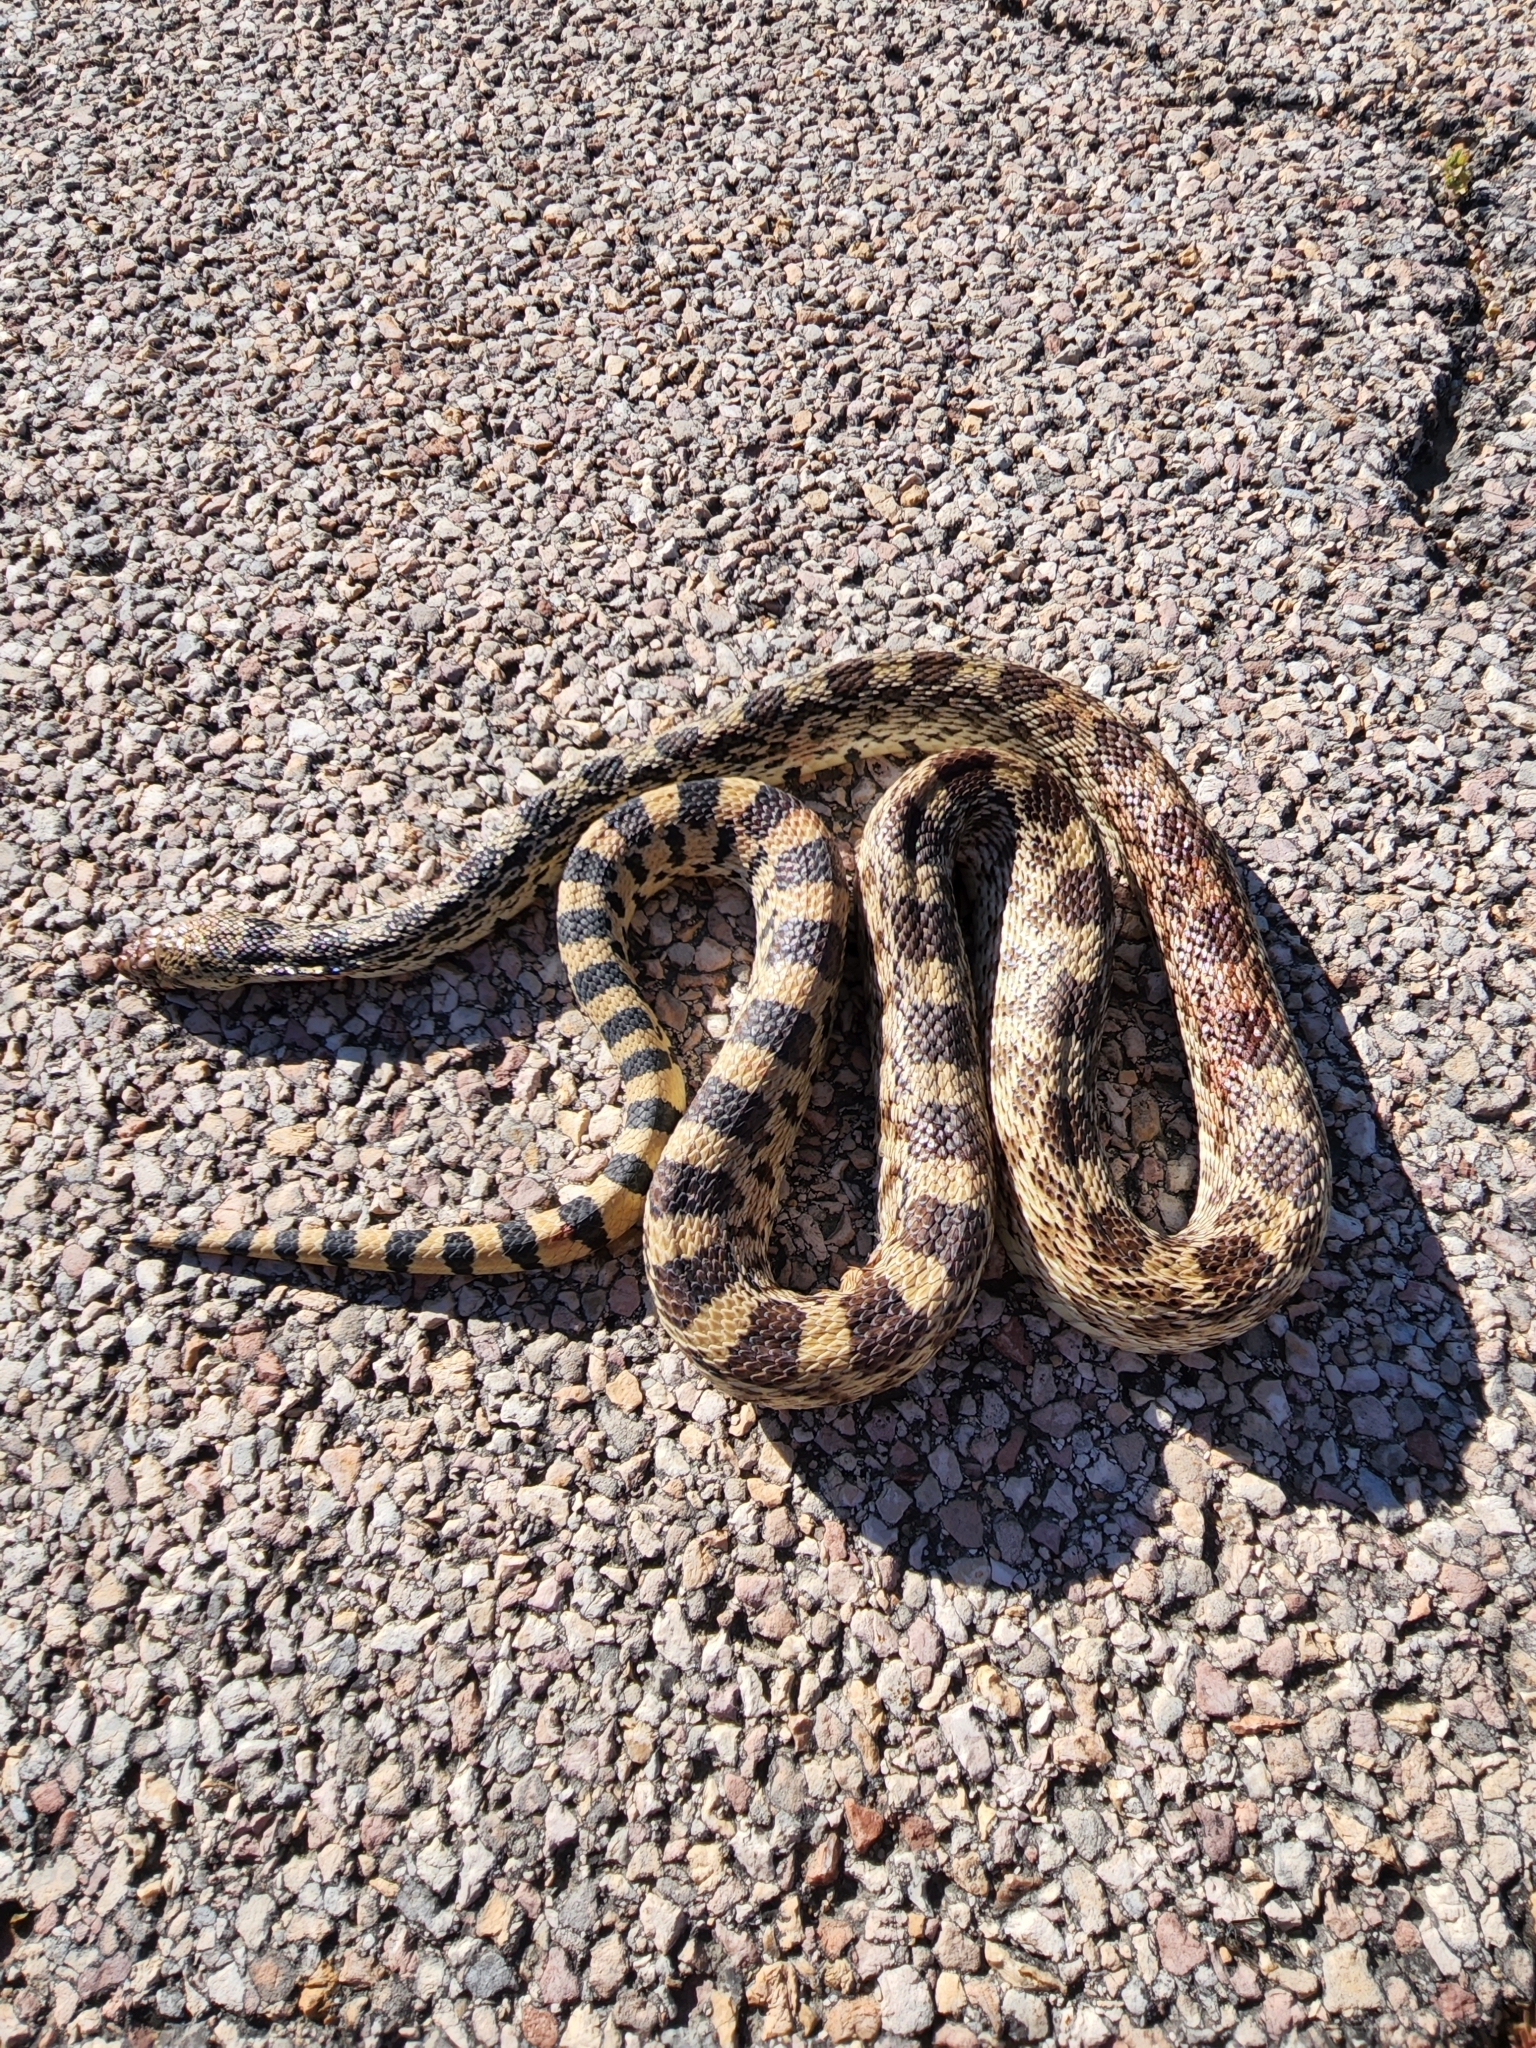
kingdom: Animalia
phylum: Chordata
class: Squamata
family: Colubridae
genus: Pituophis
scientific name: Pituophis catenifer
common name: Gopher snake
